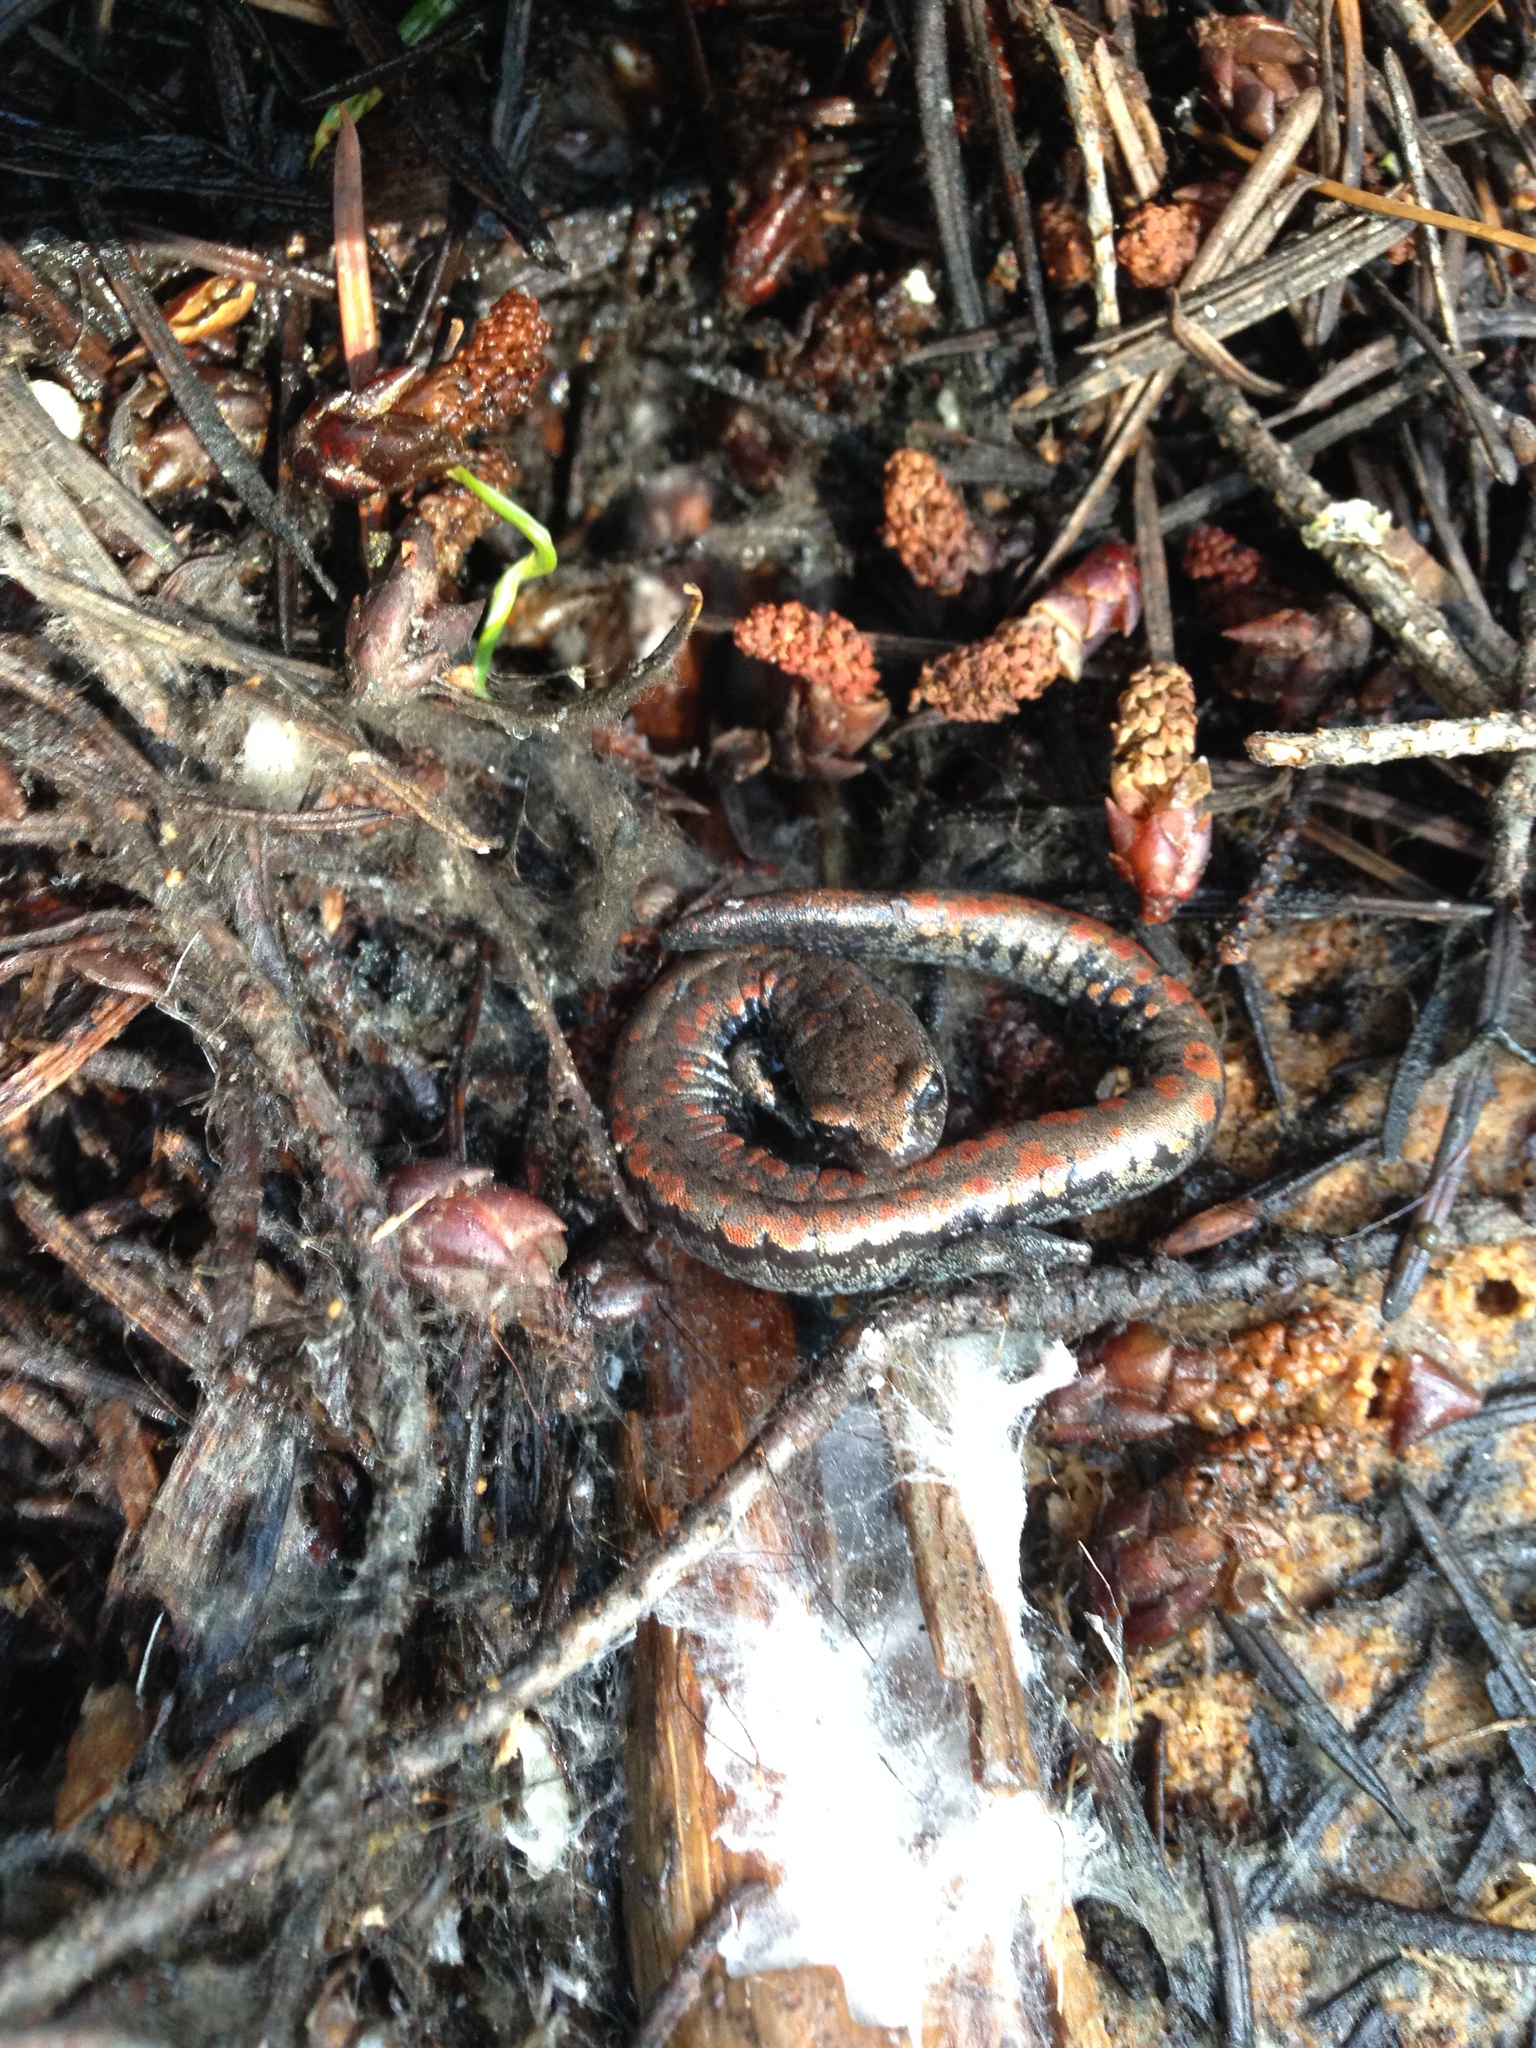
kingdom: Animalia
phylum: Chordata
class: Amphibia
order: Caudata
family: Plethodontidae
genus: Batrachoseps
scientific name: Batrachoseps wrighti
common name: Oregon slender salamander
